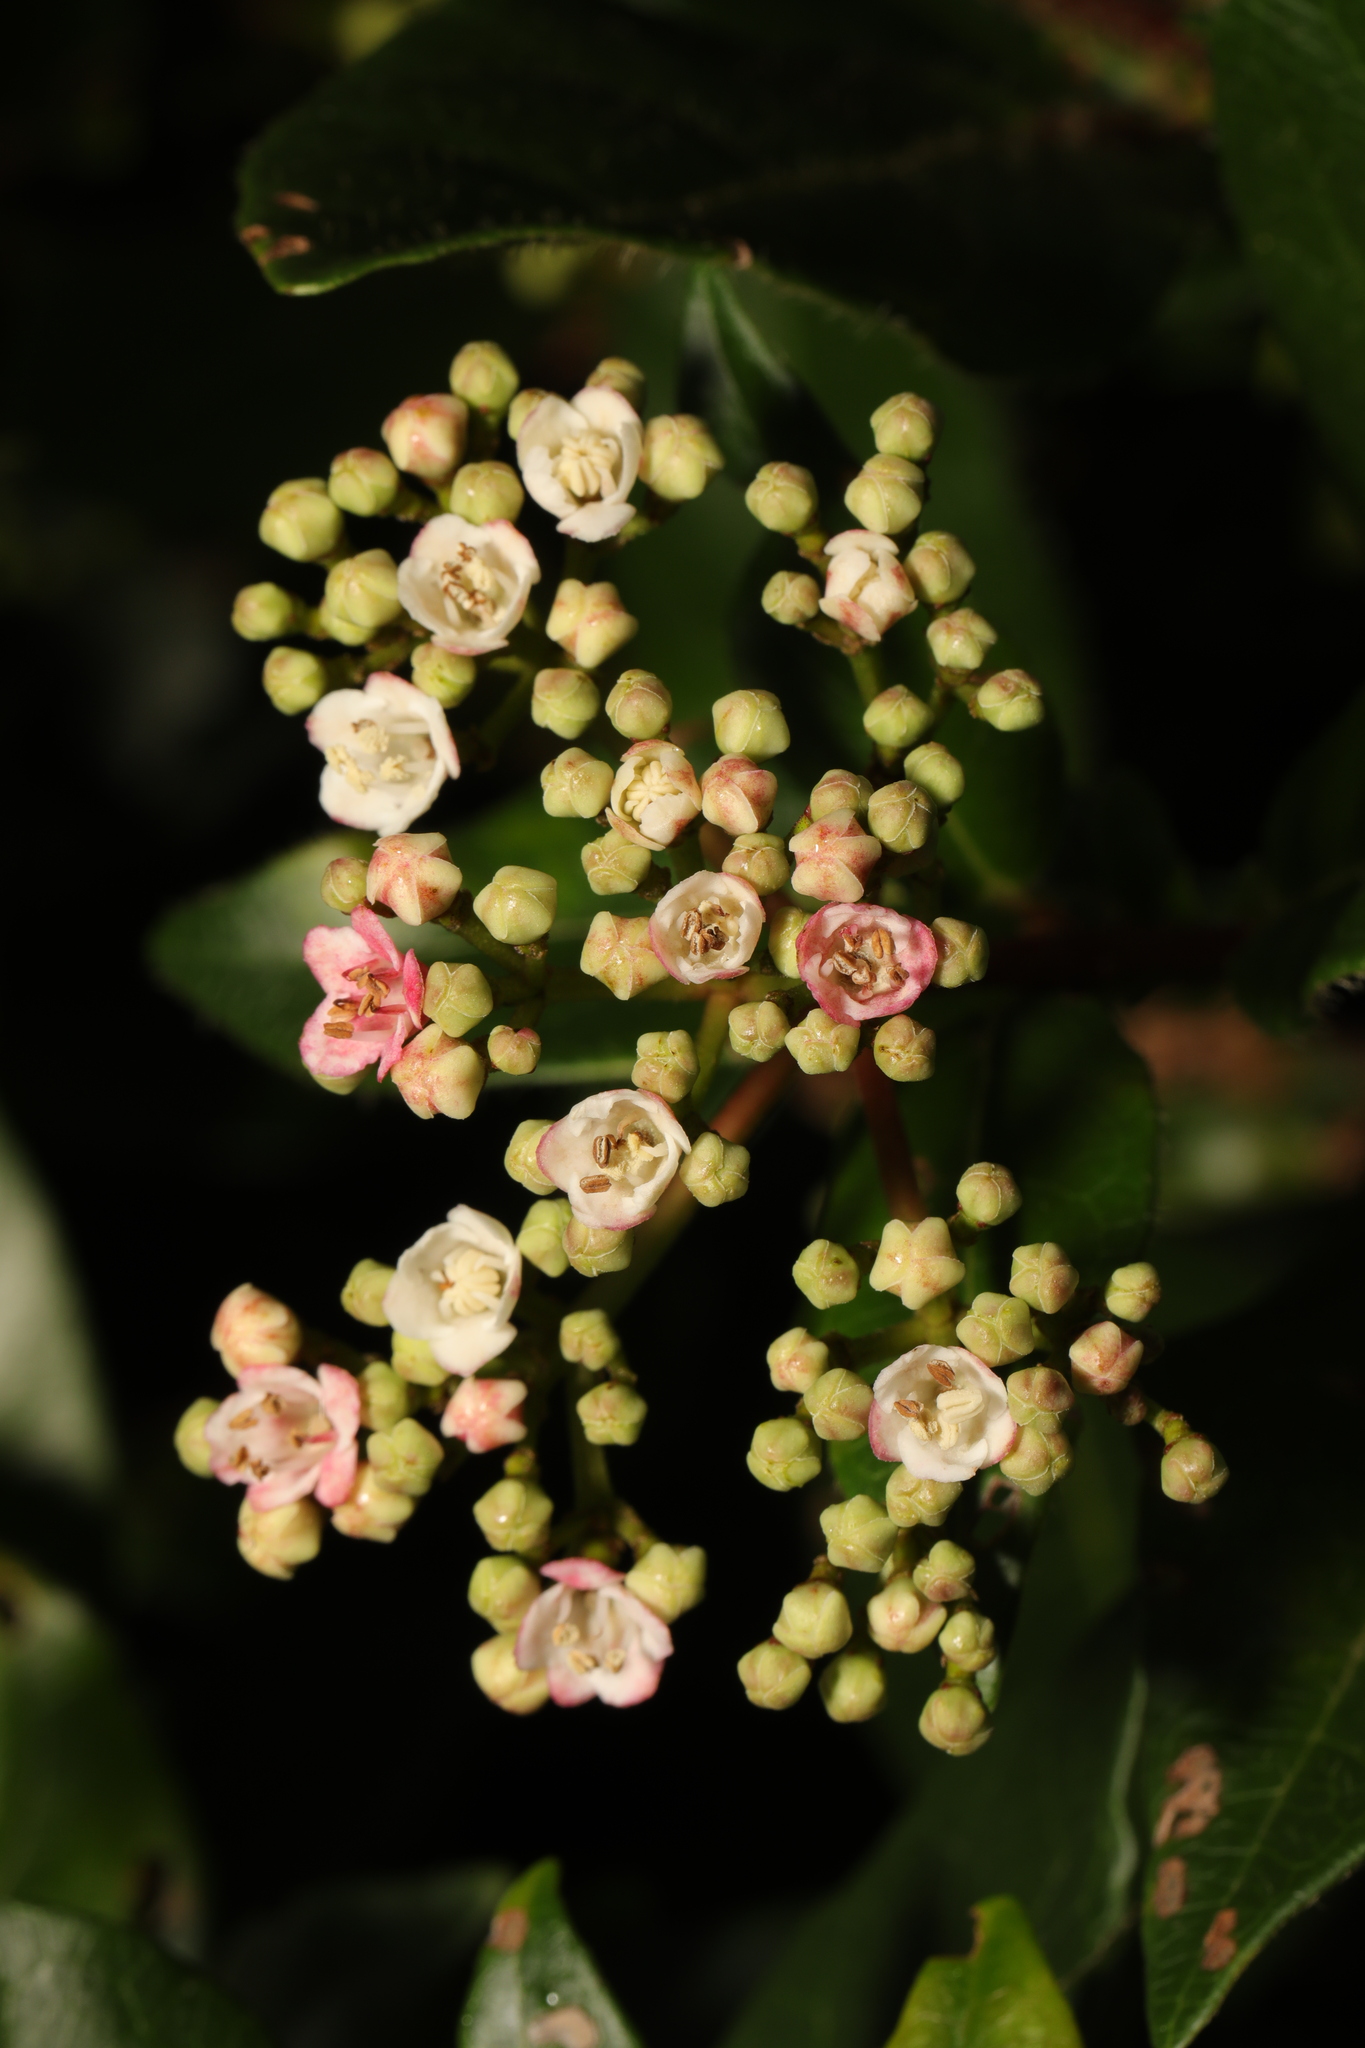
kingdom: Plantae
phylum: Tracheophyta
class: Magnoliopsida
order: Dipsacales
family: Viburnaceae
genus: Viburnum
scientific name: Viburnum tinus
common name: Laurustinus
